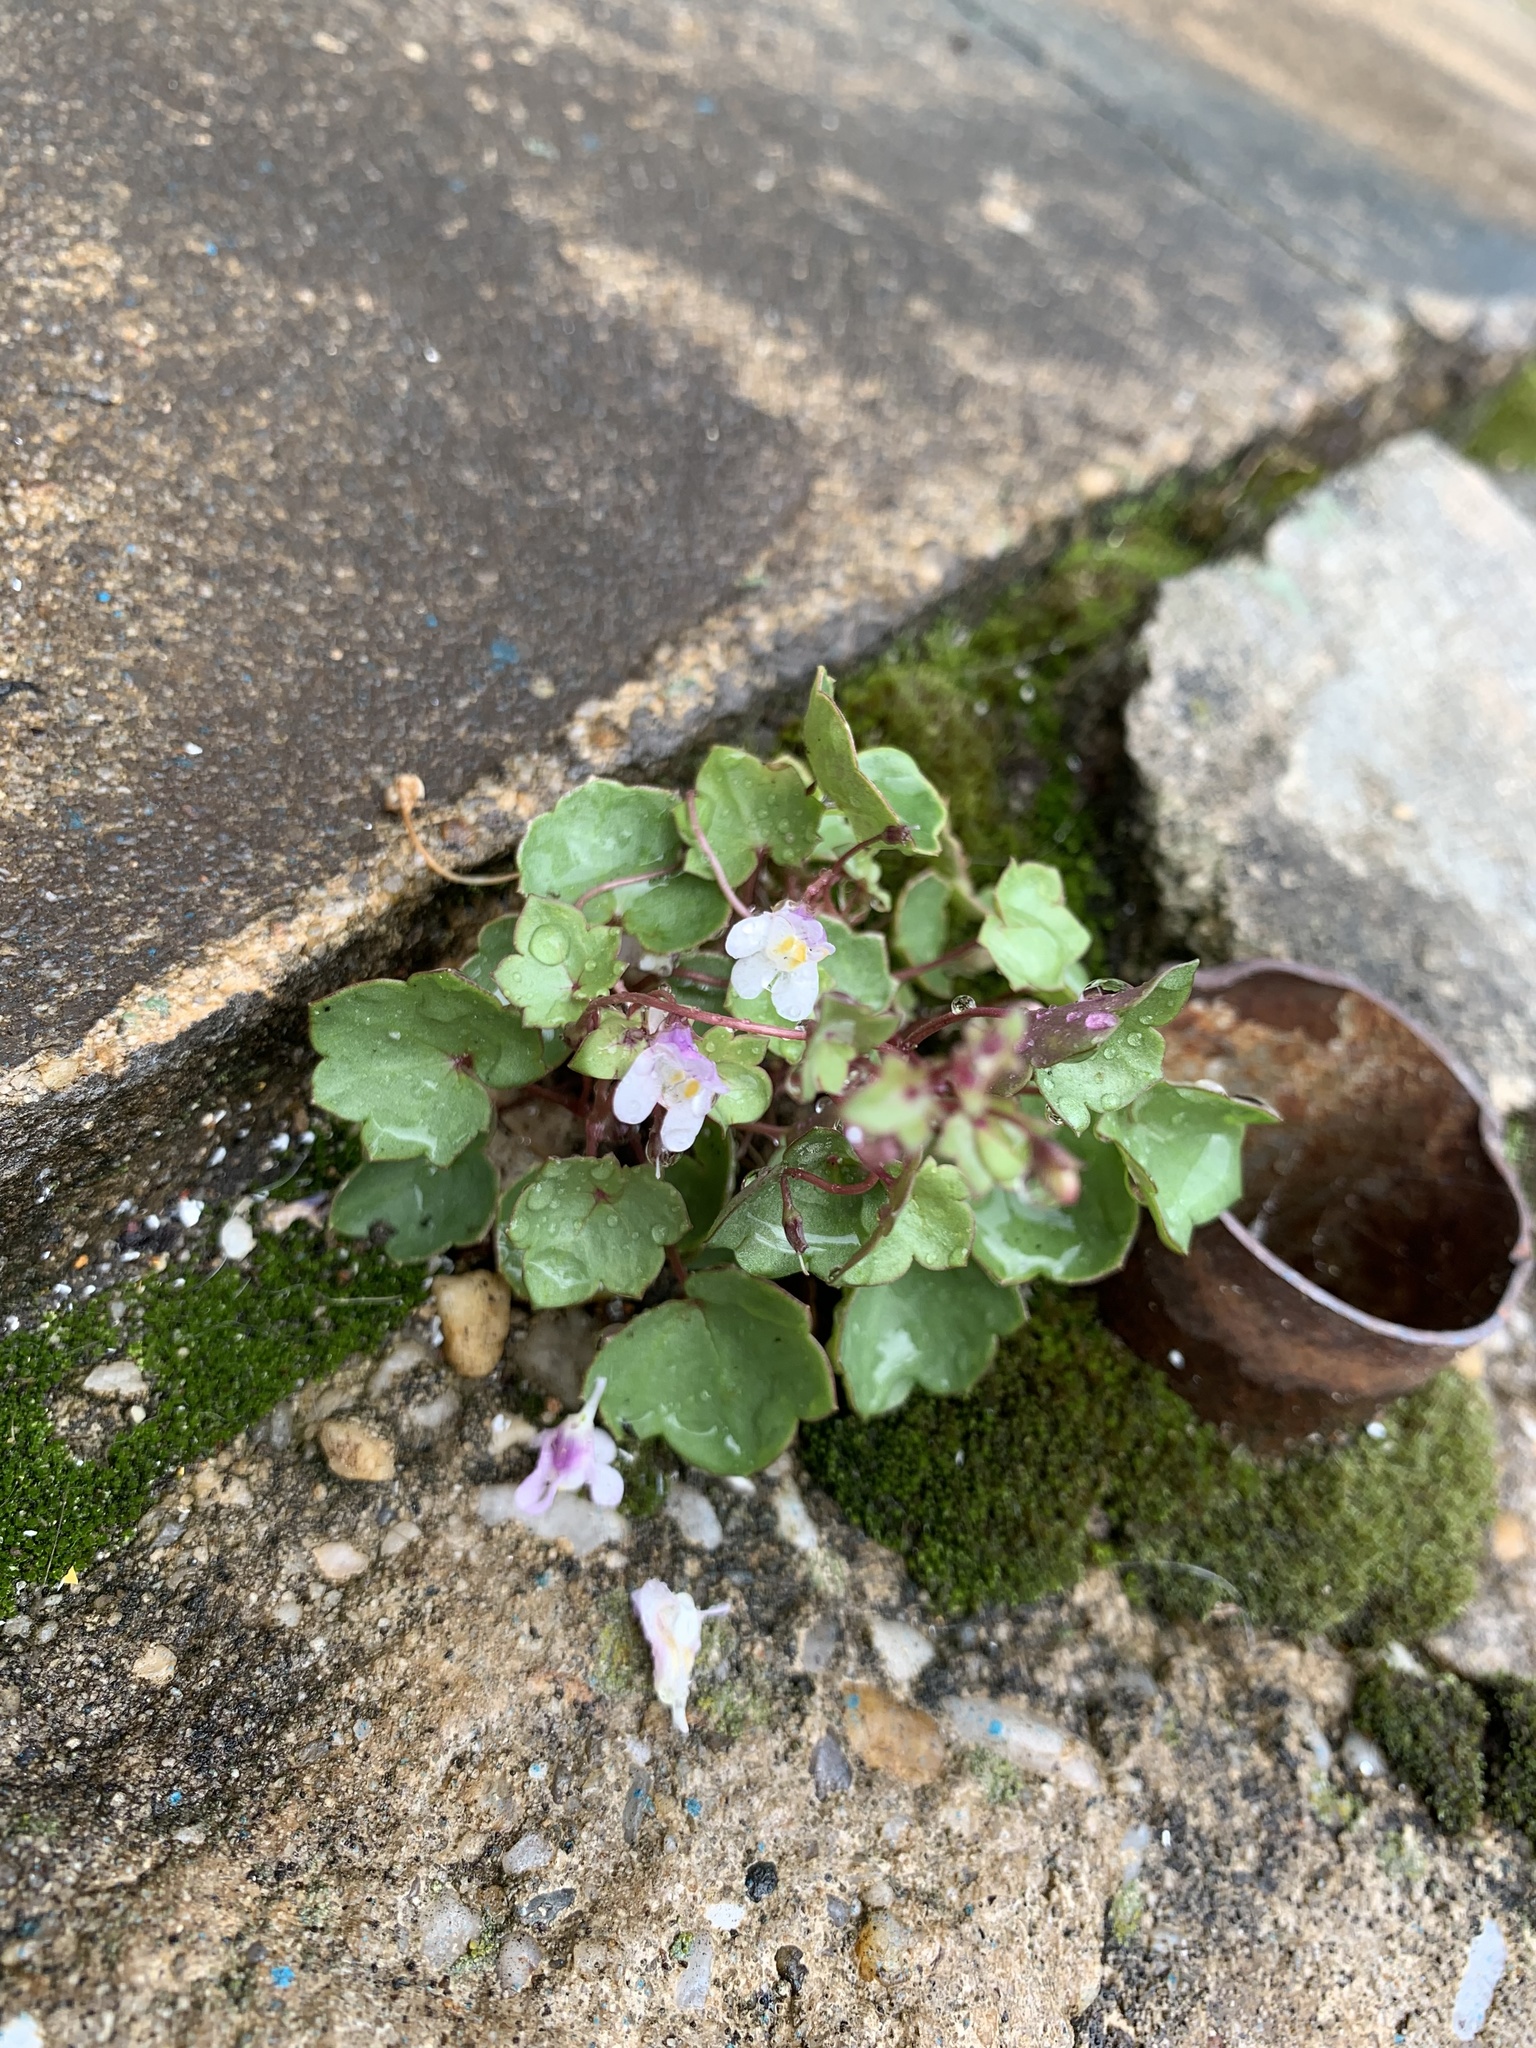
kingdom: Plantae
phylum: Tracheophyta
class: Magnoliopsida
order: Lamiales
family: Plantaginaceae
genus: Cymbalaria
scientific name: Cymbalaria muralis
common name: Ivy-leaved toadflax
